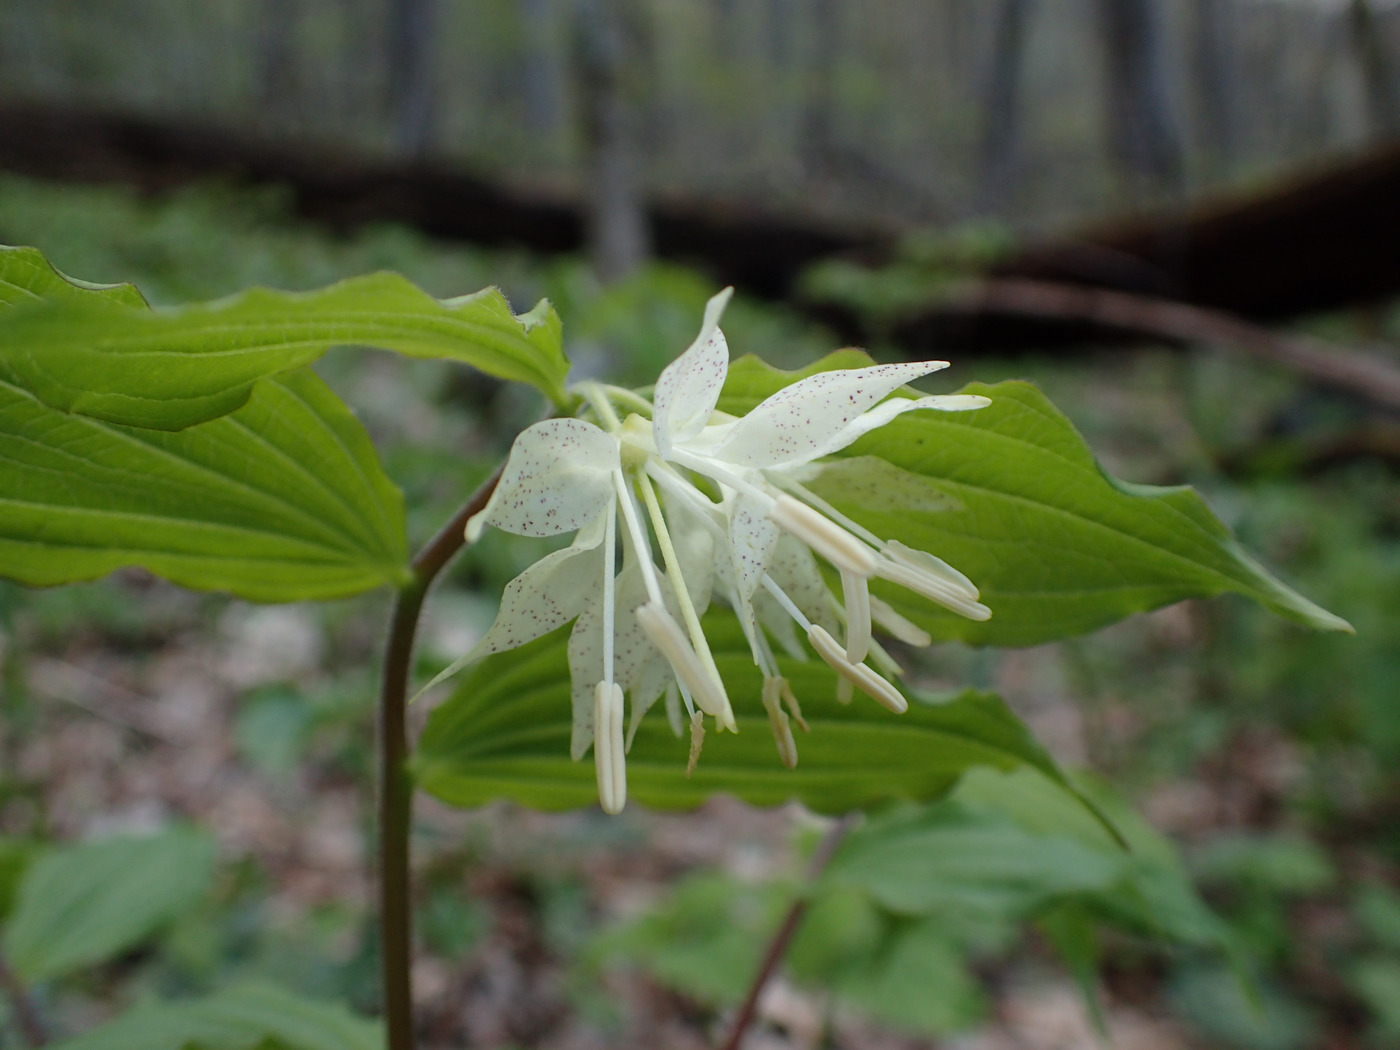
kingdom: Plantae
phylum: Tracheophyta
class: Liliopsida
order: Liliales
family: Liliaceae
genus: Prosartes
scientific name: Prosartes maculata
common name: Yellow mandarin
